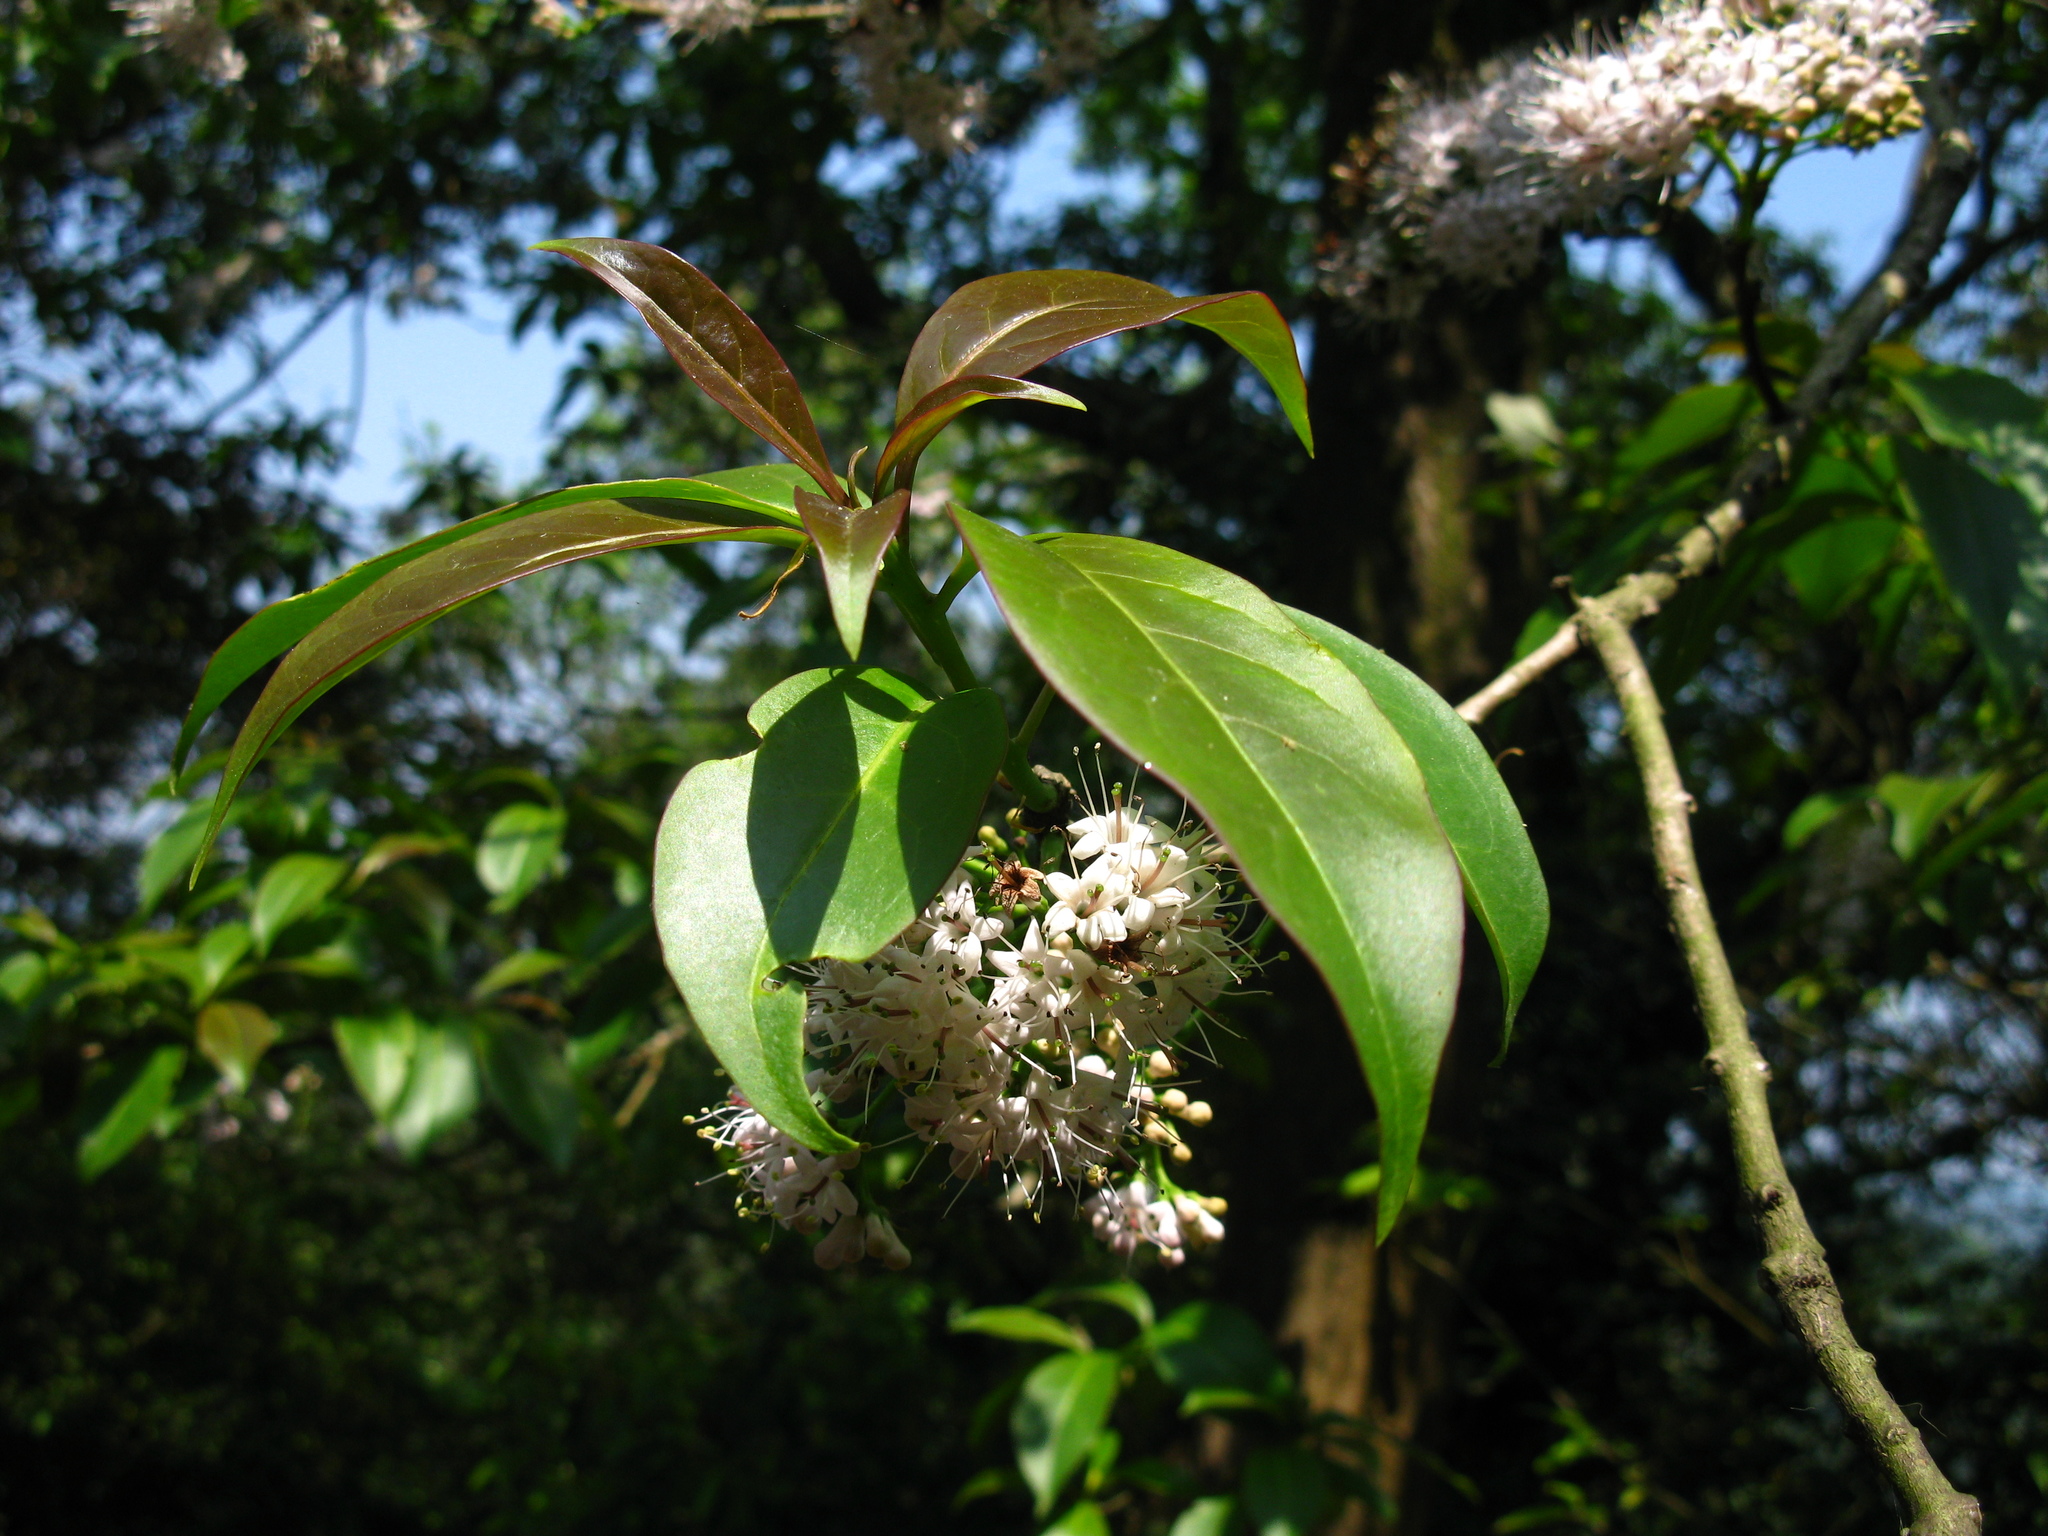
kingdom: Plantae
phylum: Tracheophyta
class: Magnoliopsida
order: Boraginales
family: Ehretiaceae
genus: Ehretia
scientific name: Ehretia longiflora
